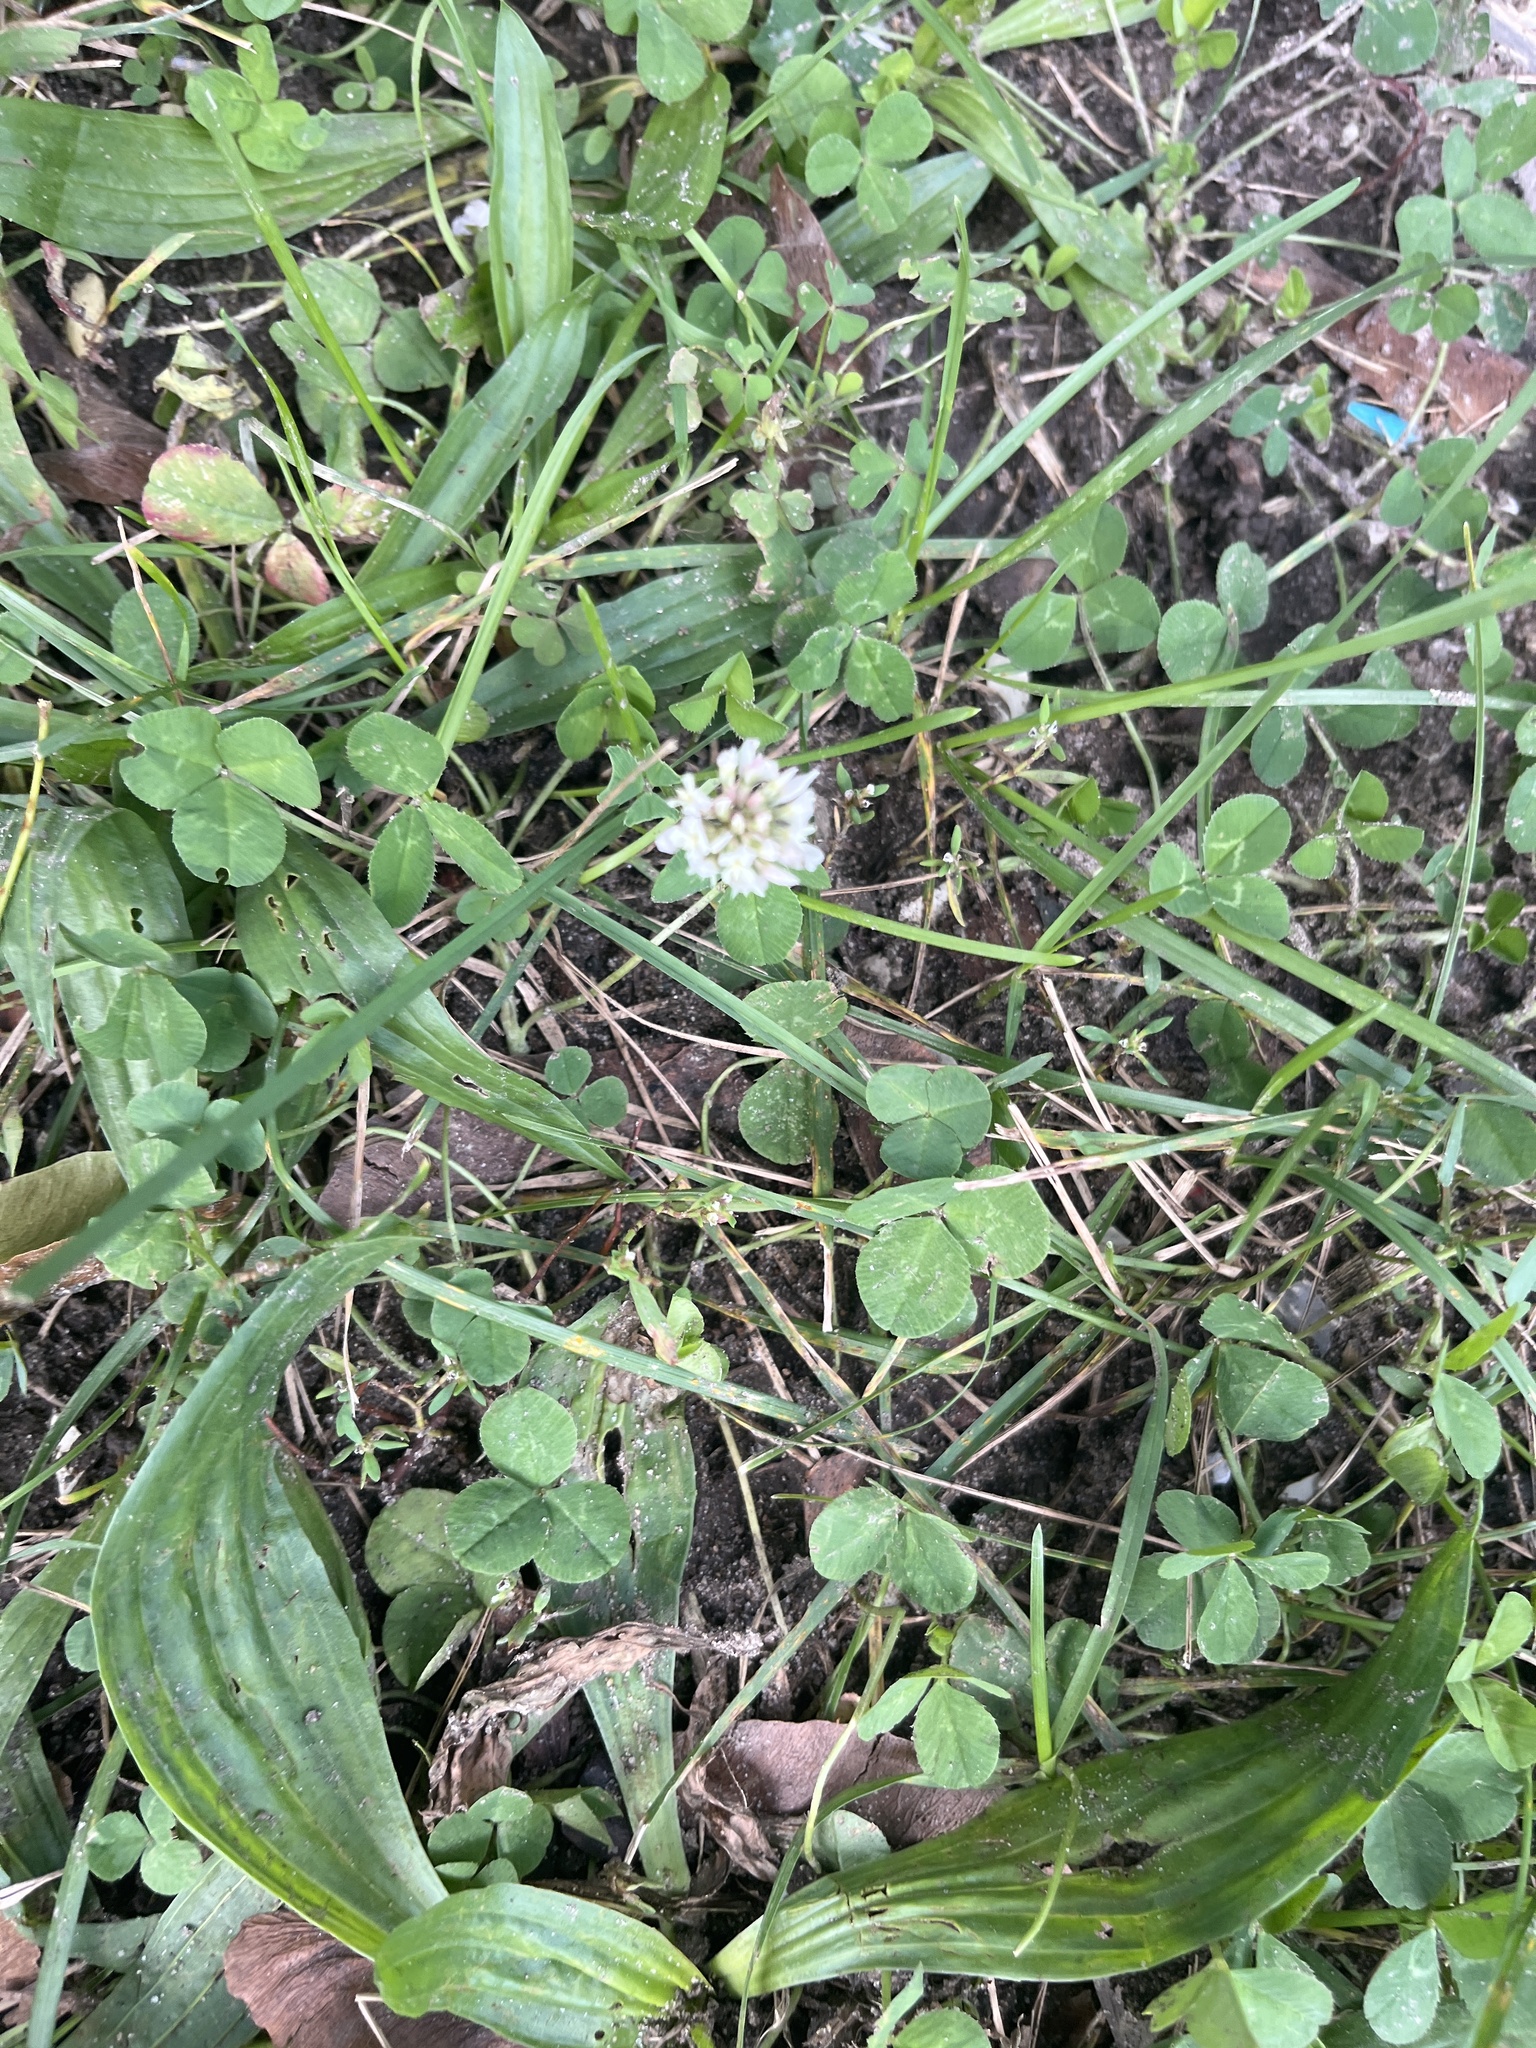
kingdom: Plantae
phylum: Tracheophyta
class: Magnoliopsida
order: Fabales
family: Fabaceae
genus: Trifolium
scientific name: Trifolium repens
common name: White clover
